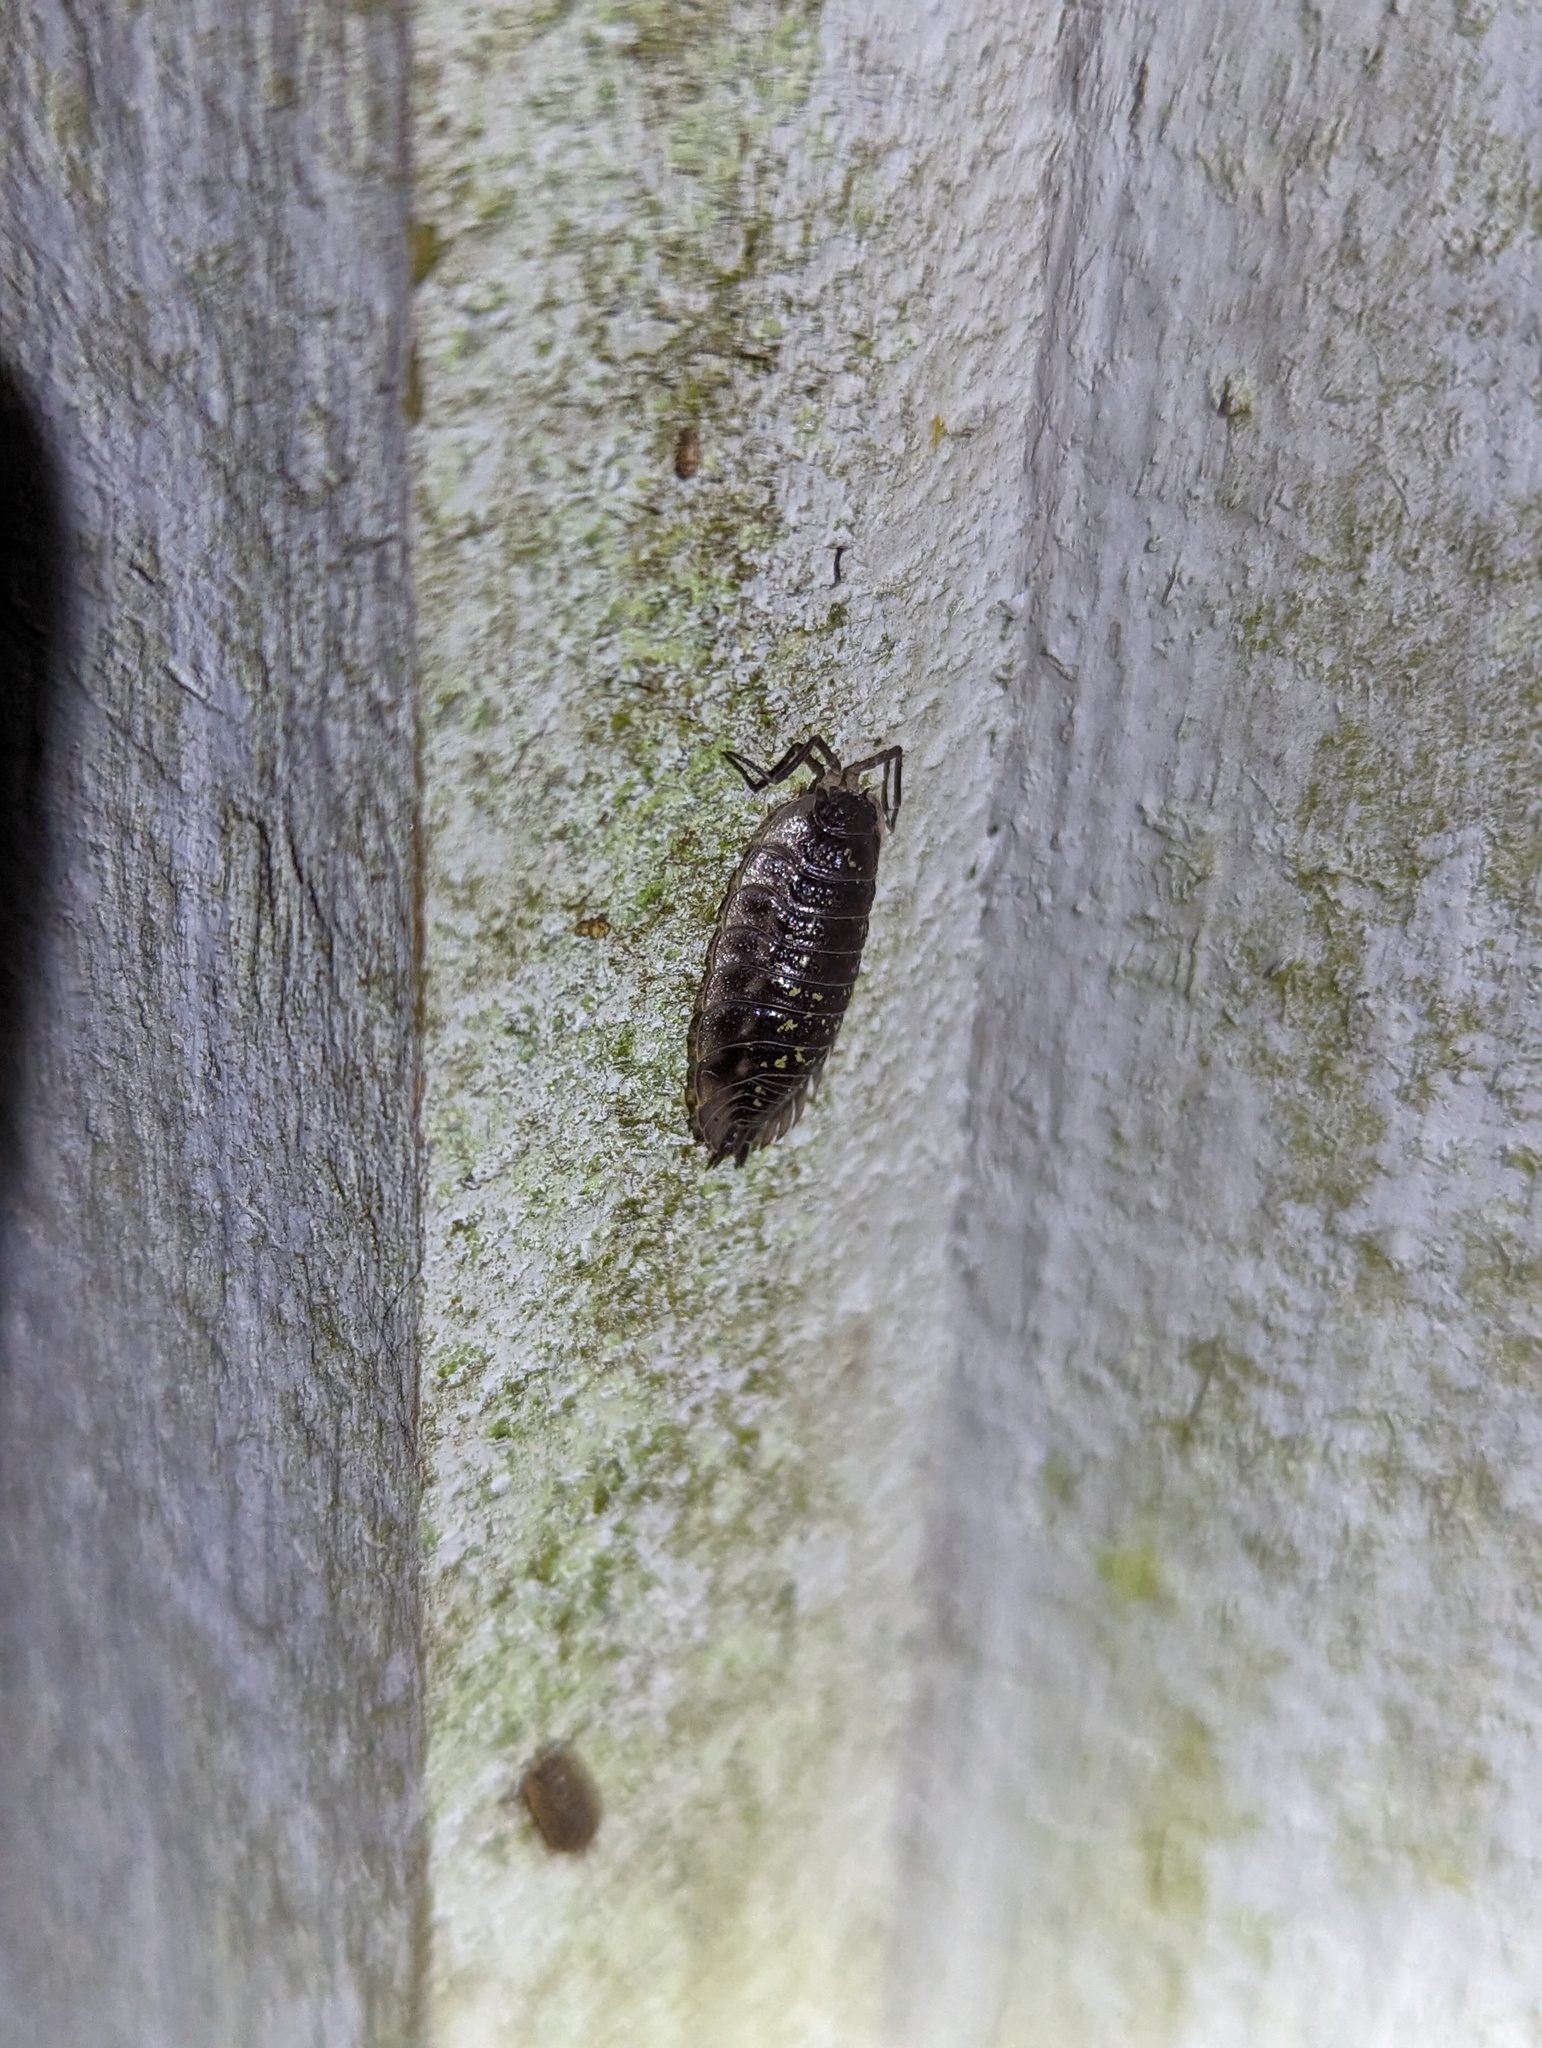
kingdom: Animalia
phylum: Arthropoda
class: Malacostraca
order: Isopoda
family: Oniscidae
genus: Oniscus
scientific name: Oniscus asellus
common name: Common shiny woodlouse
